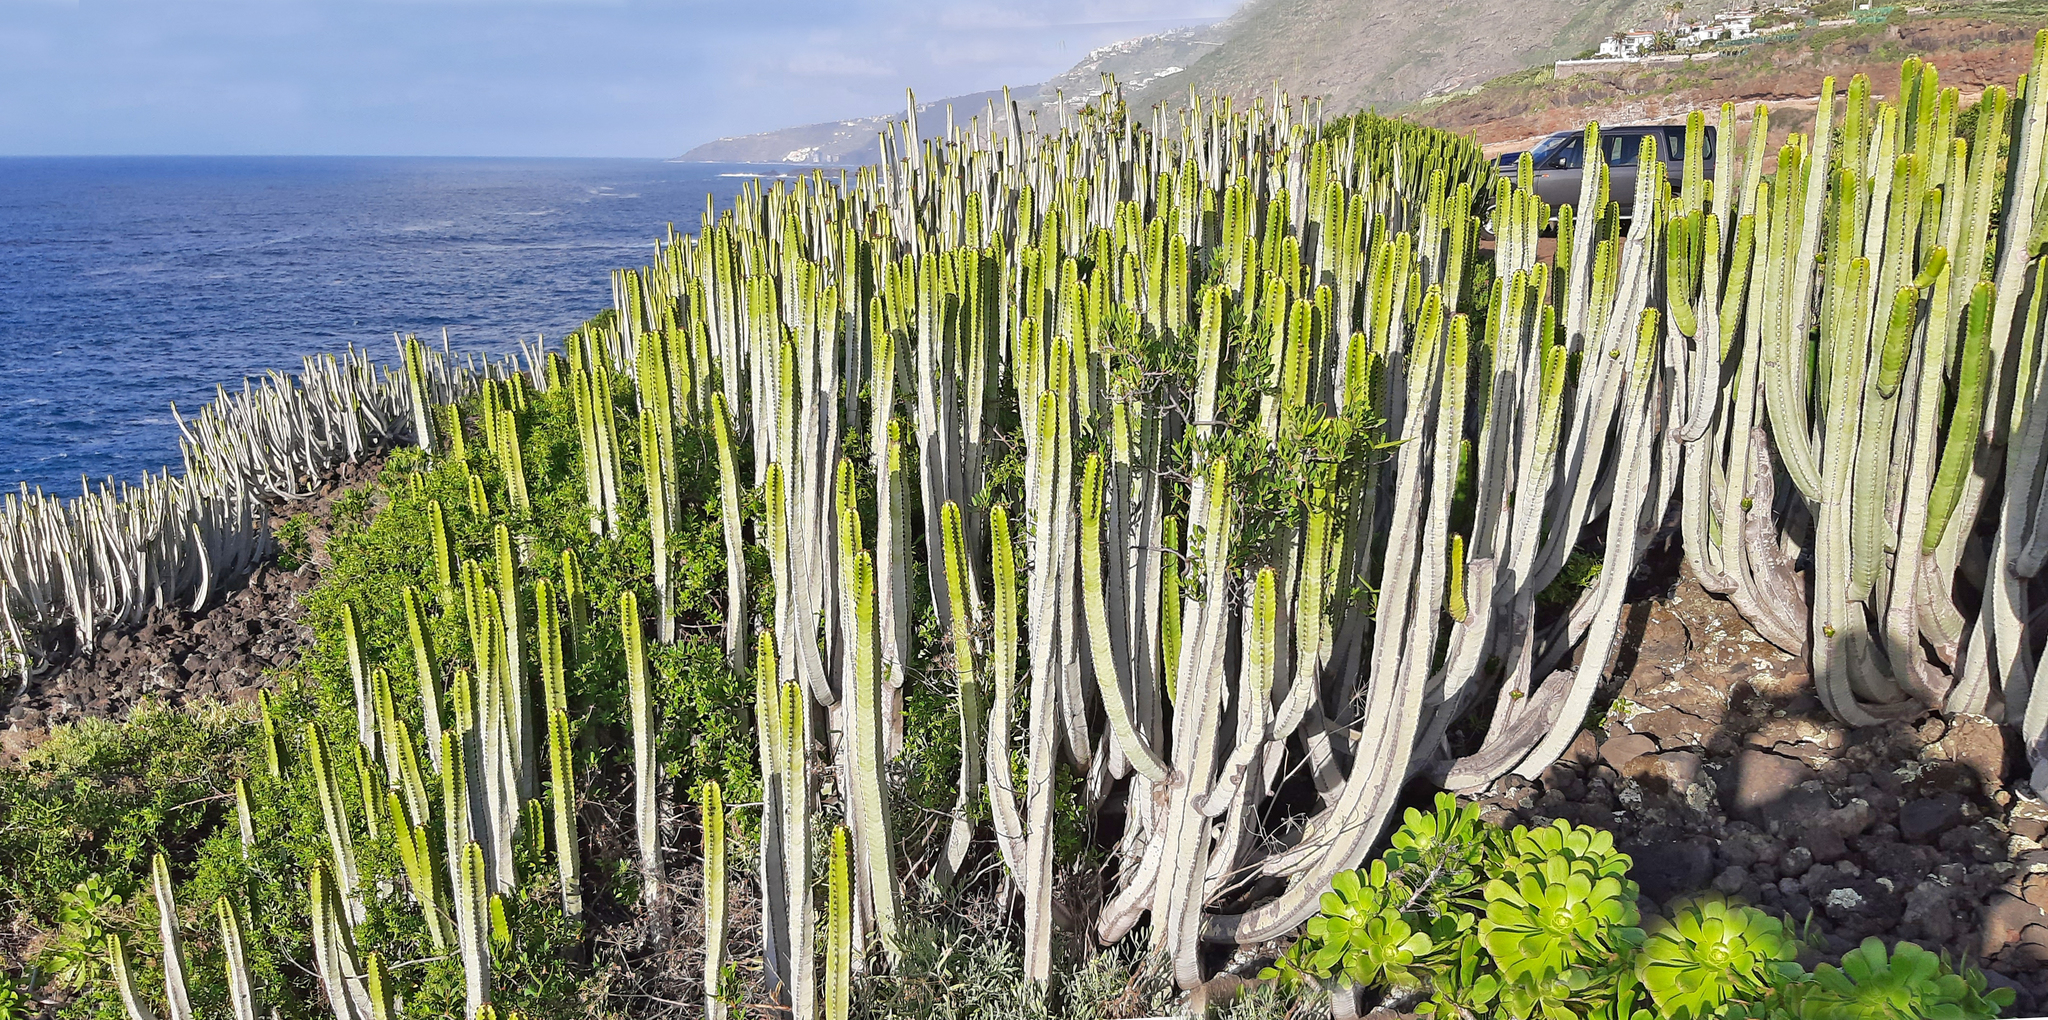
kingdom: Plantae
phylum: Tracheophyta
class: Magnoliopsida
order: Malpighiales
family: Euphorbiaceae
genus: Euphorbia
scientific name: Euphorbia canariensis
